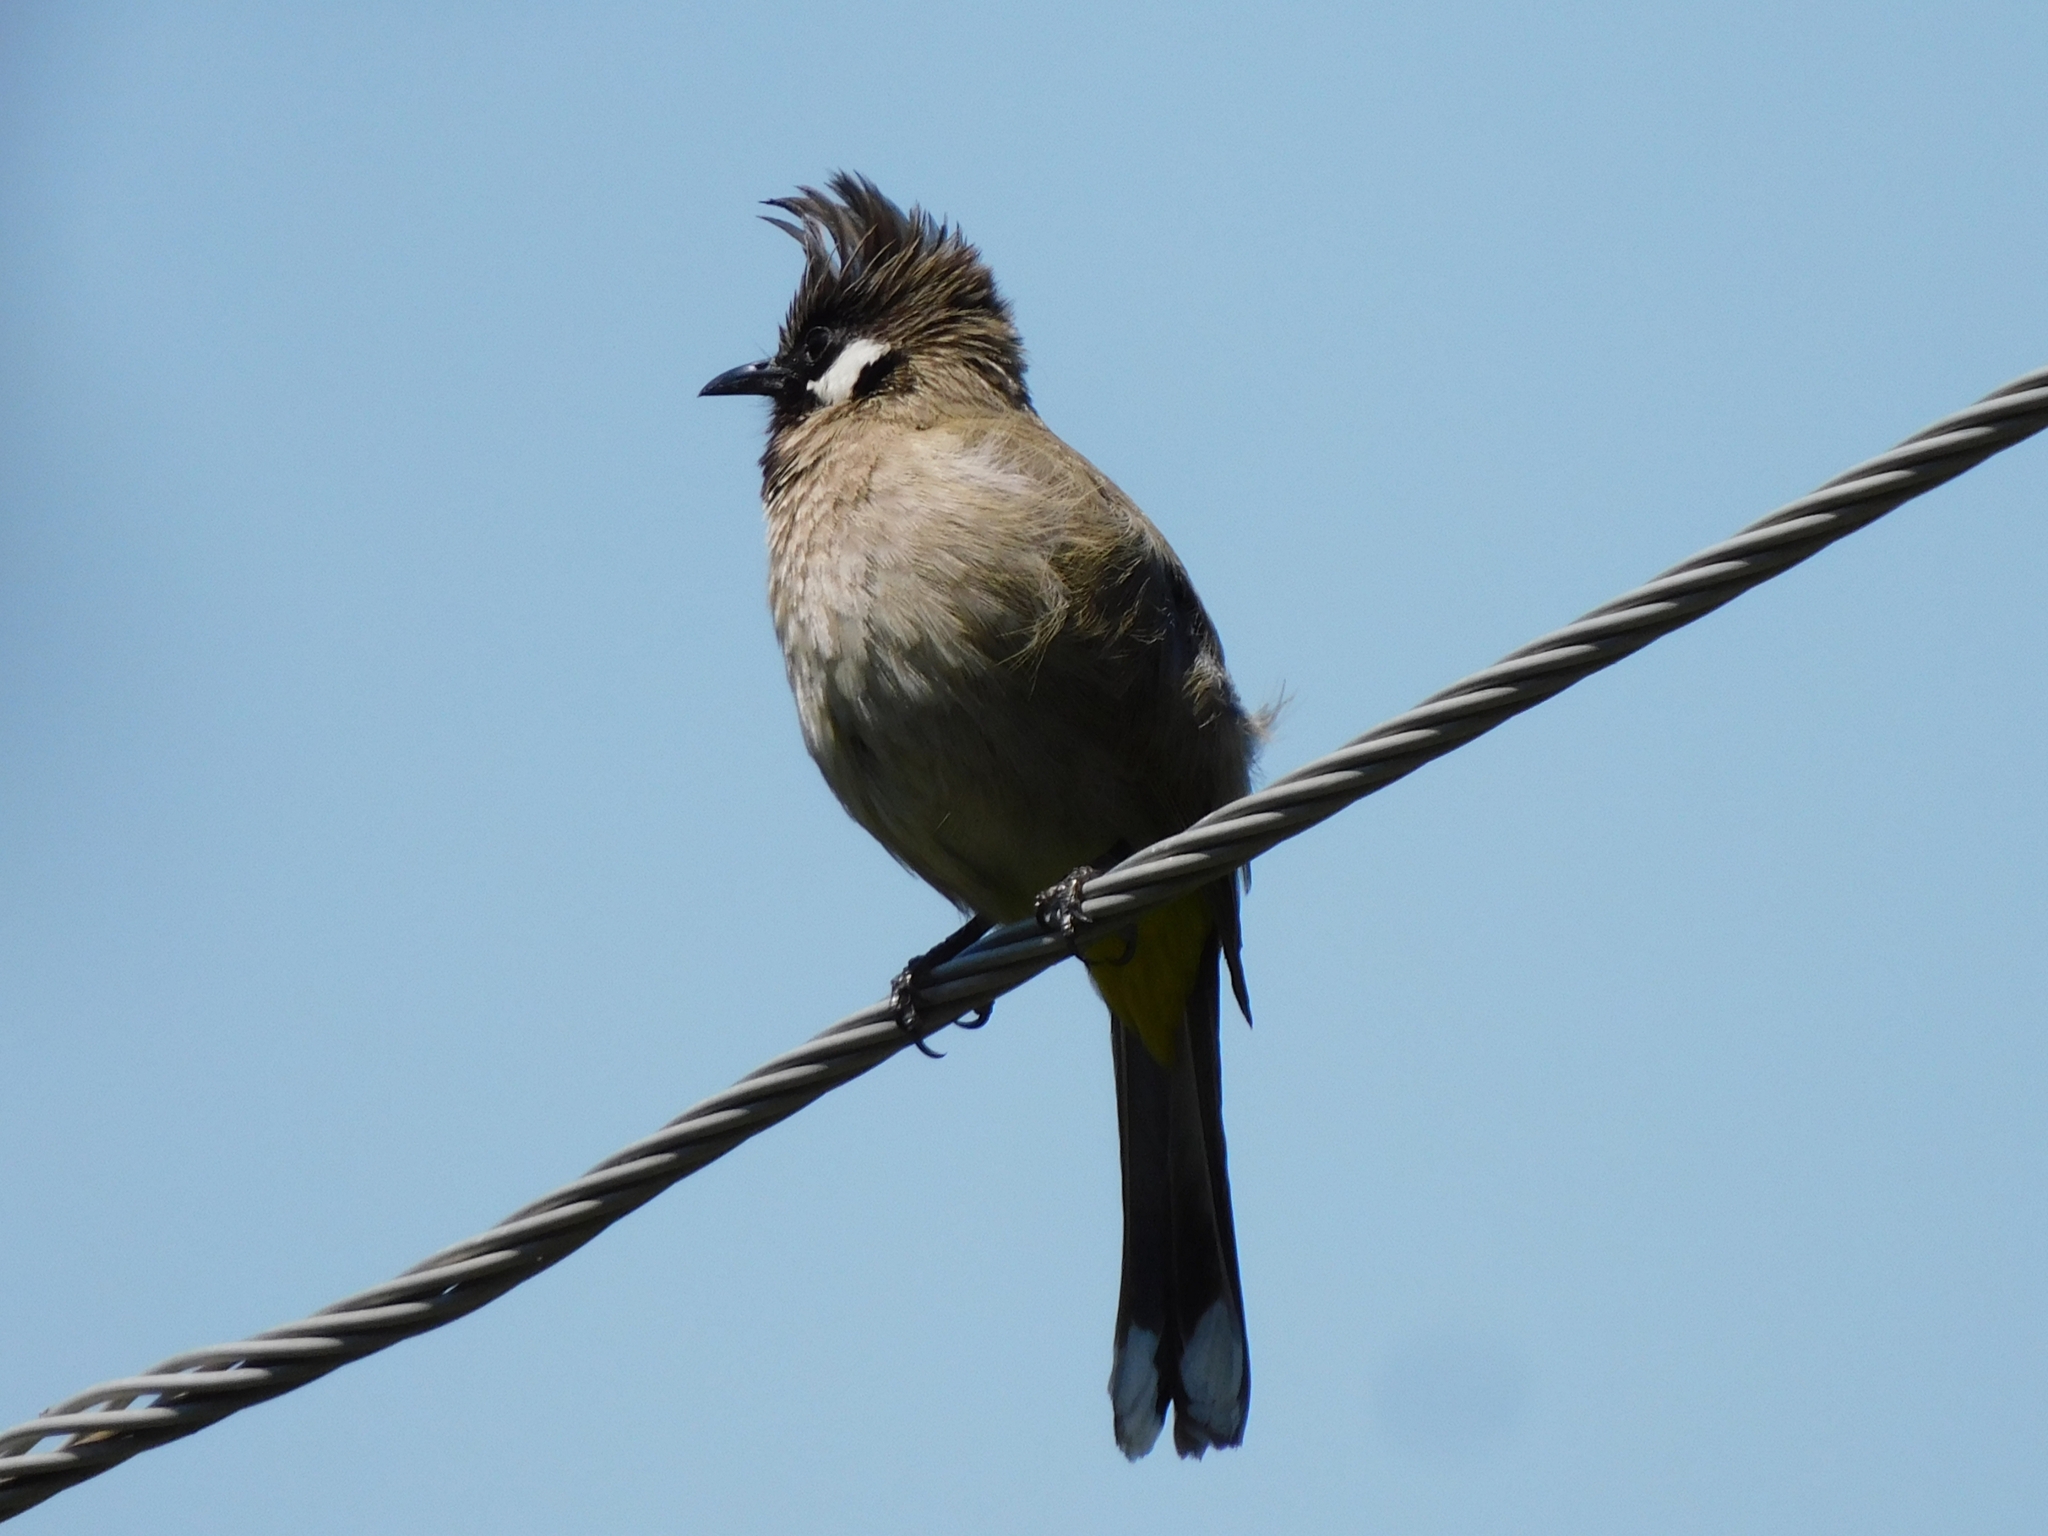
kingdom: Animalia
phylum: Chordata
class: Aves
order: Passeriformes
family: Pycnonotidae
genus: Pycnonotus
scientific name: Pycnonotus leucogenys
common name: Himalayan bulbul
